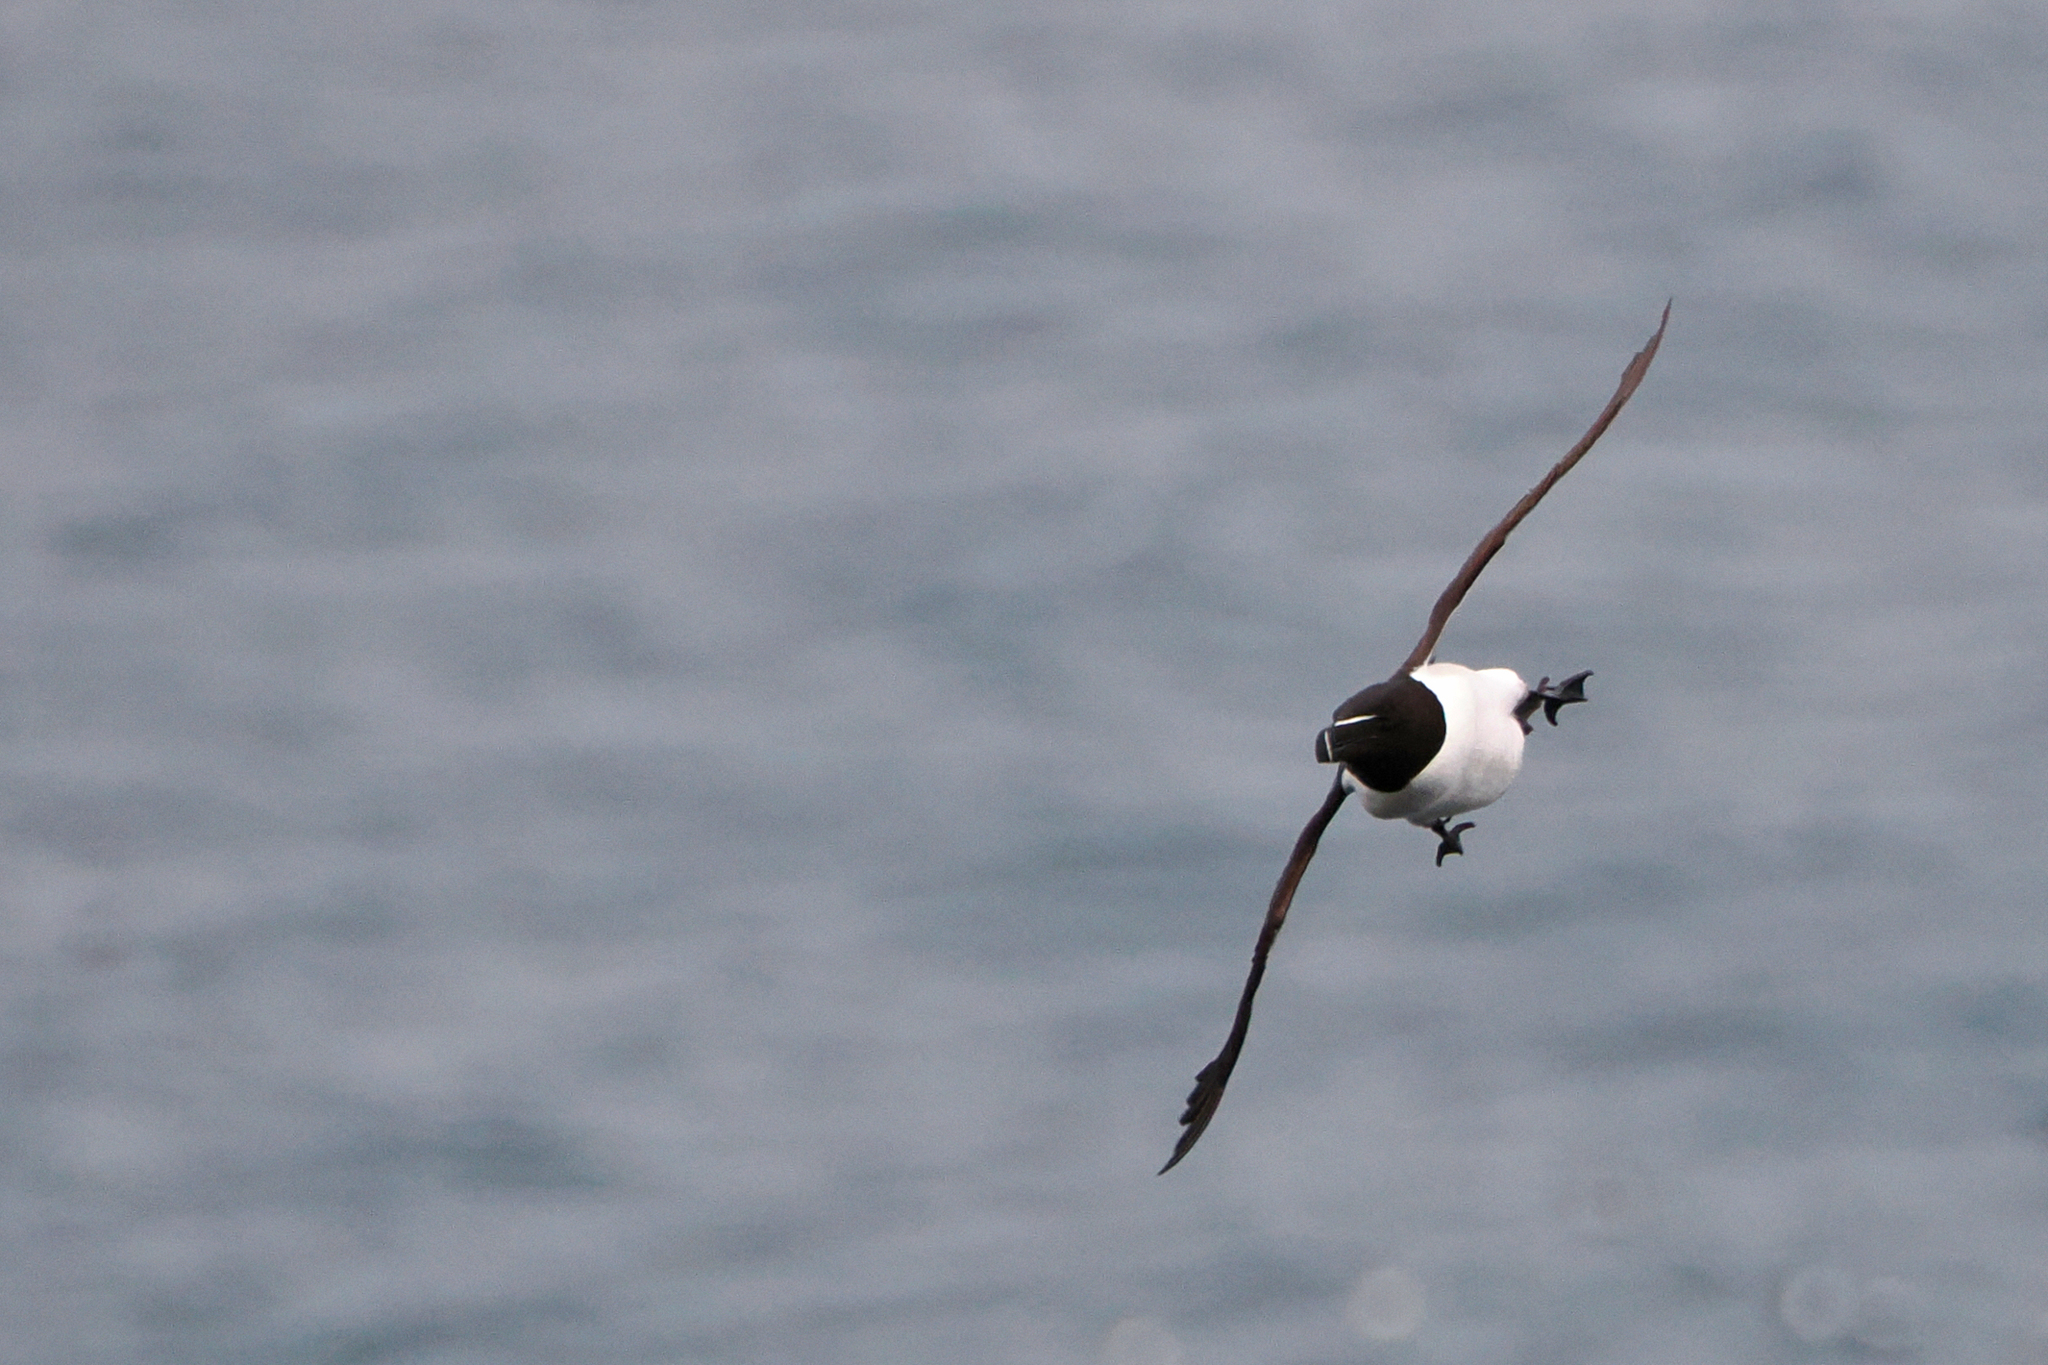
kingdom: Animalia
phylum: Chordata
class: Aves
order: Charadriiformes
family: Alcidae
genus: Alca
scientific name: Alca torda
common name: Razorbill
